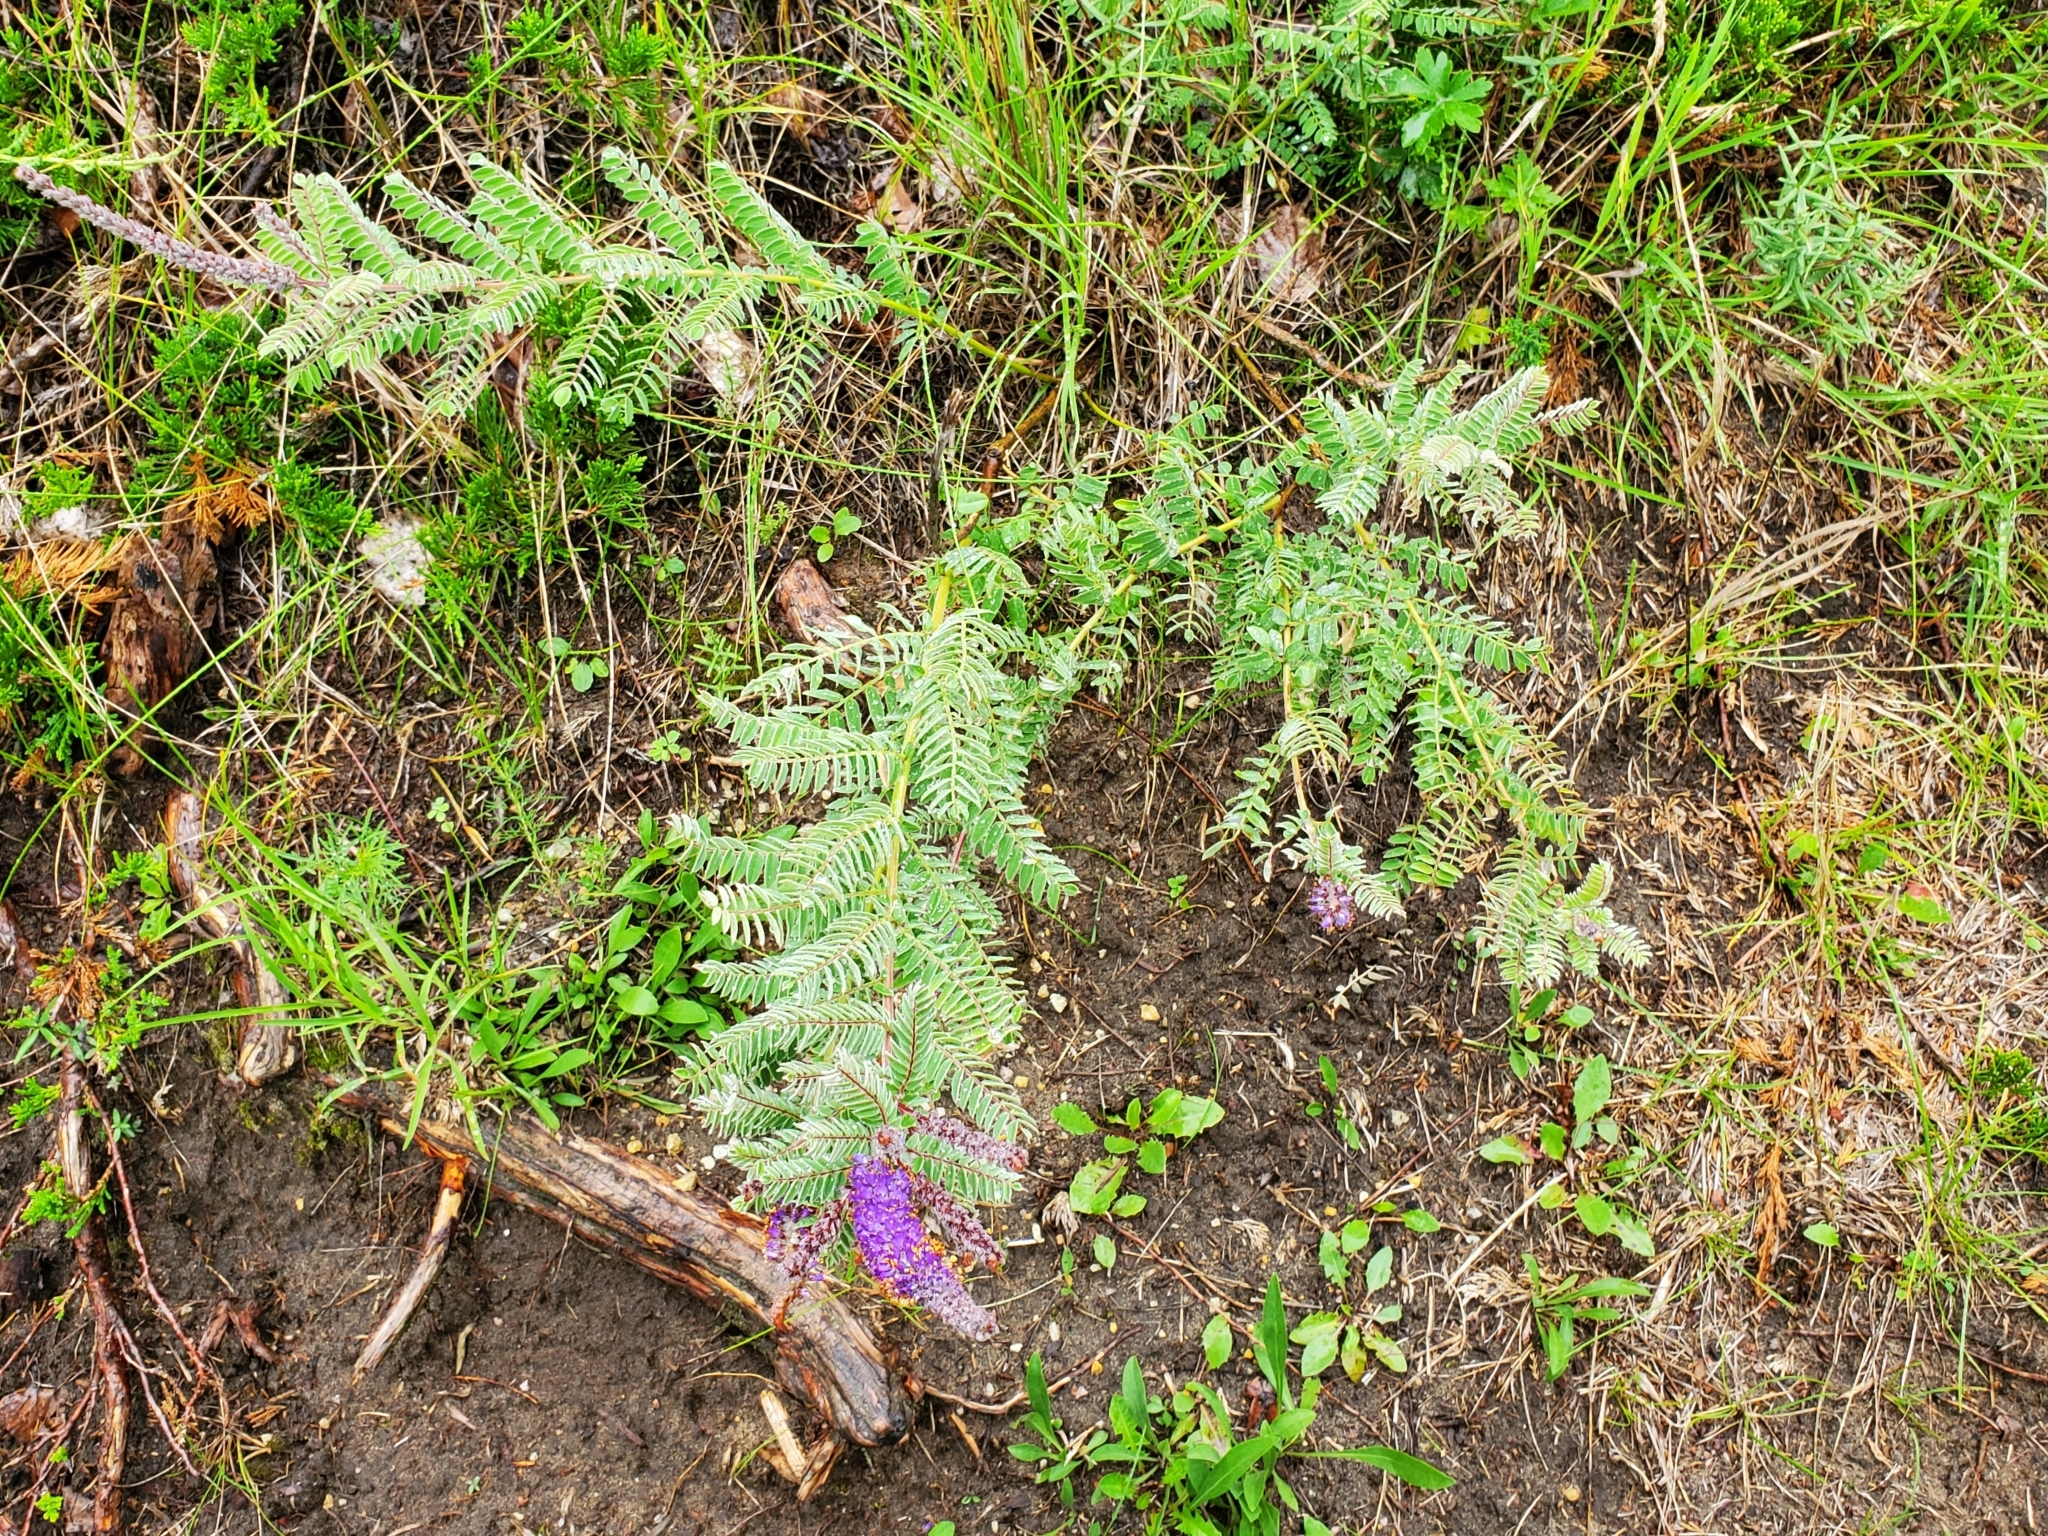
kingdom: Plantae
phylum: Tracheophyta
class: Magnoliopsida
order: Fabales
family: Fabaceae
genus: Amorpha
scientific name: Amorpha canescens
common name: Leadplant
